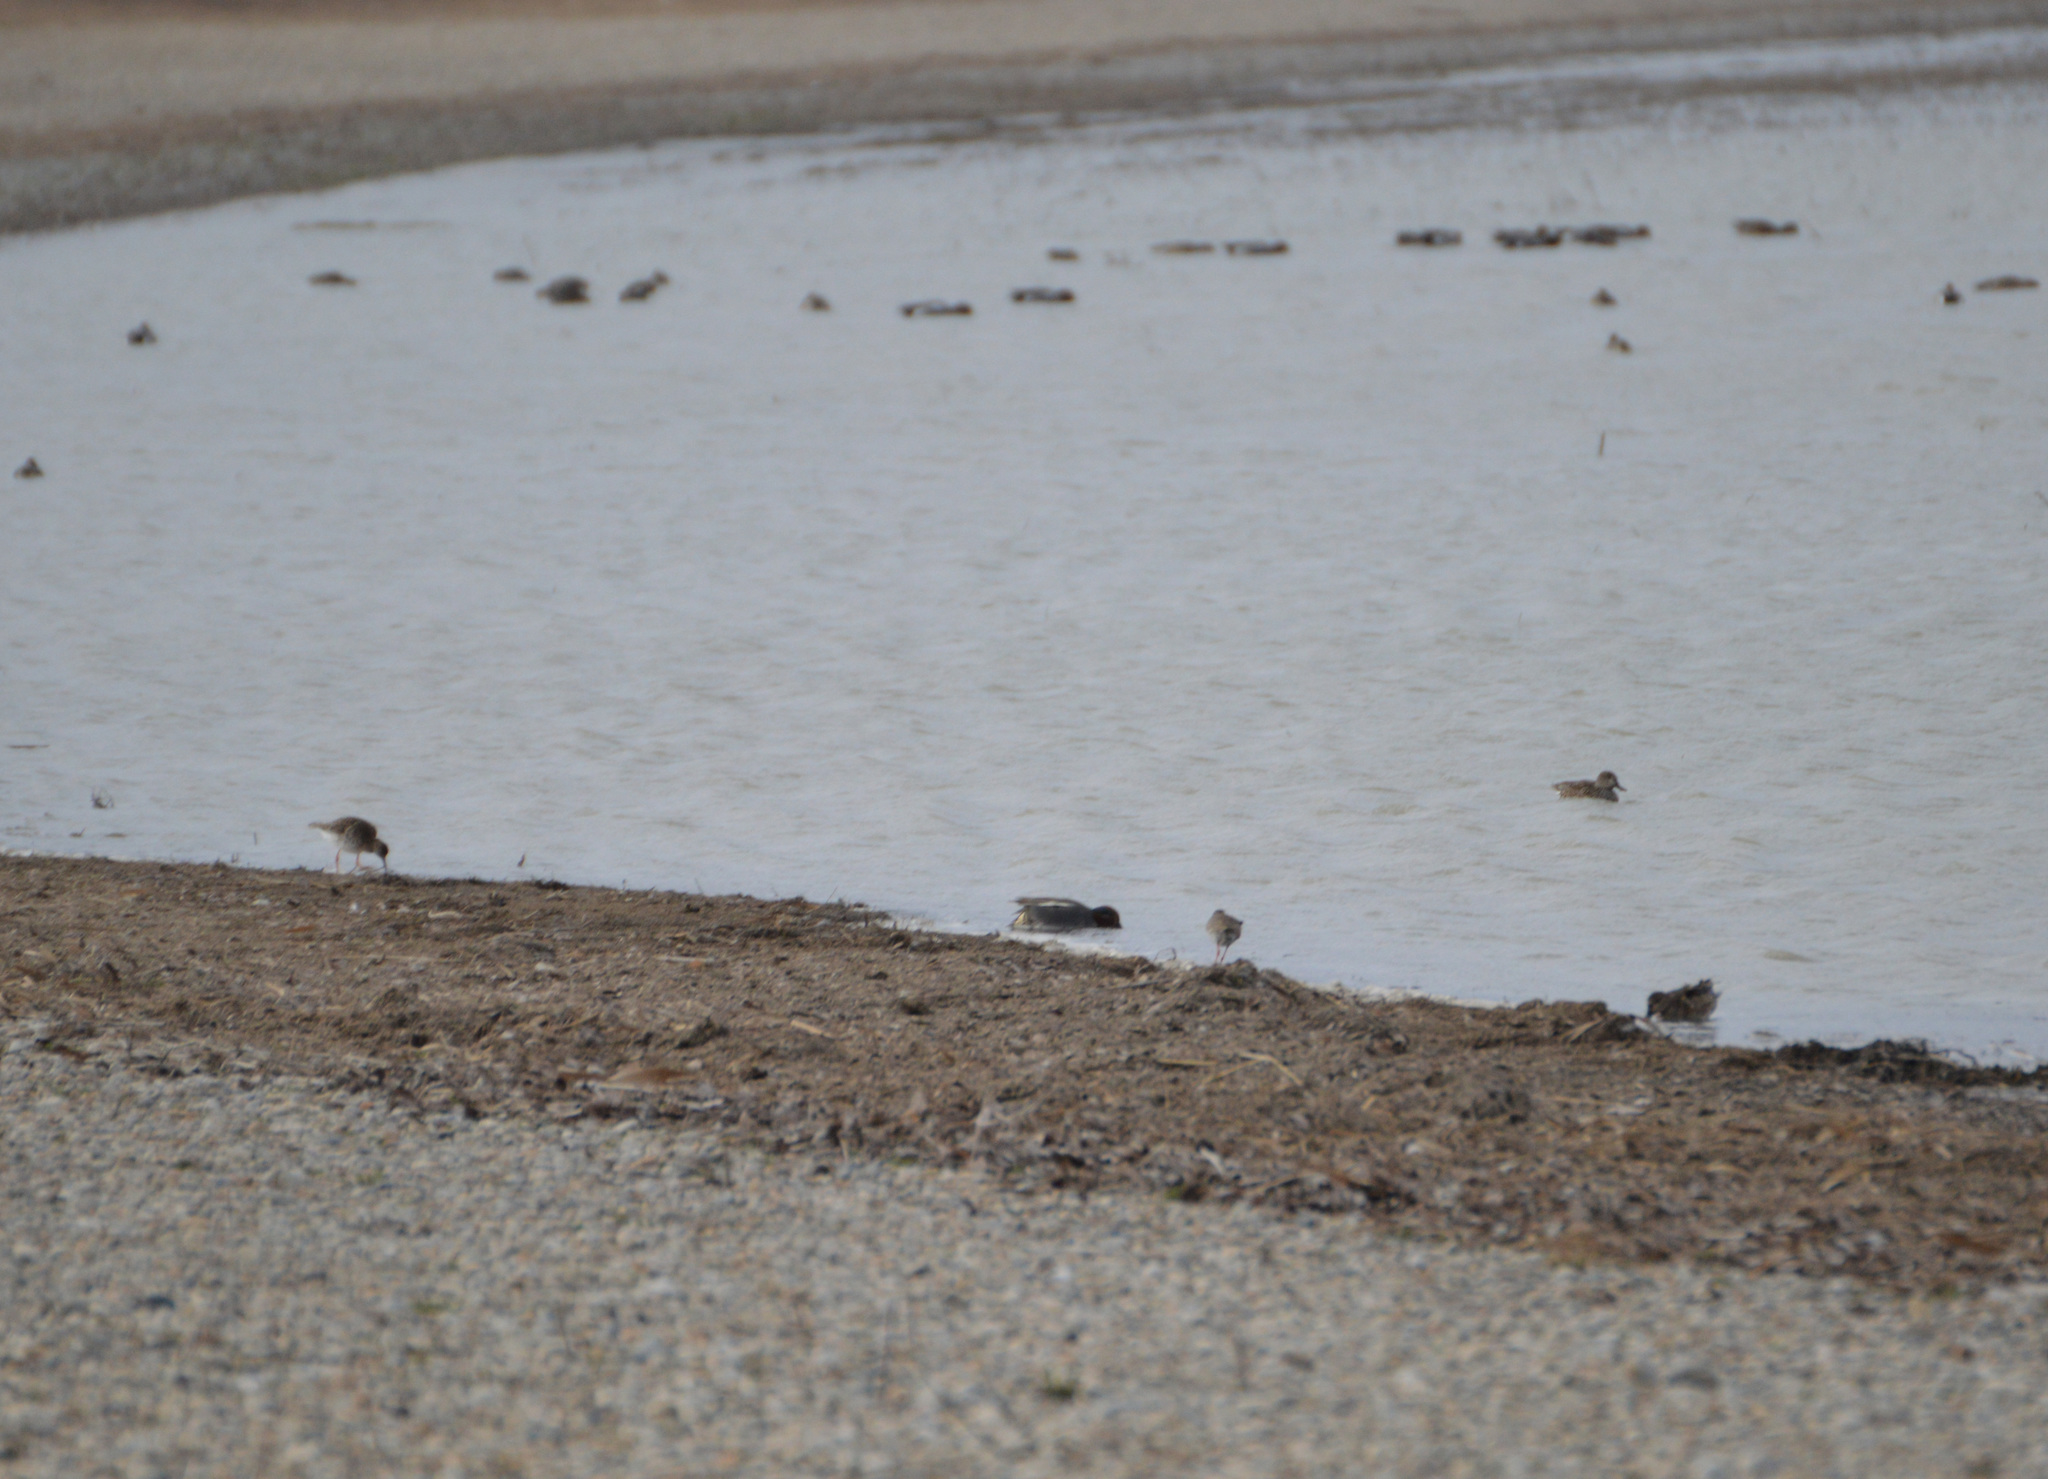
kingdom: Animalia
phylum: Chordata
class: Aves
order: Charadriiformes
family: Scolopacidae
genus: Tringa
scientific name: Tringa totanus
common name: Common redshank
